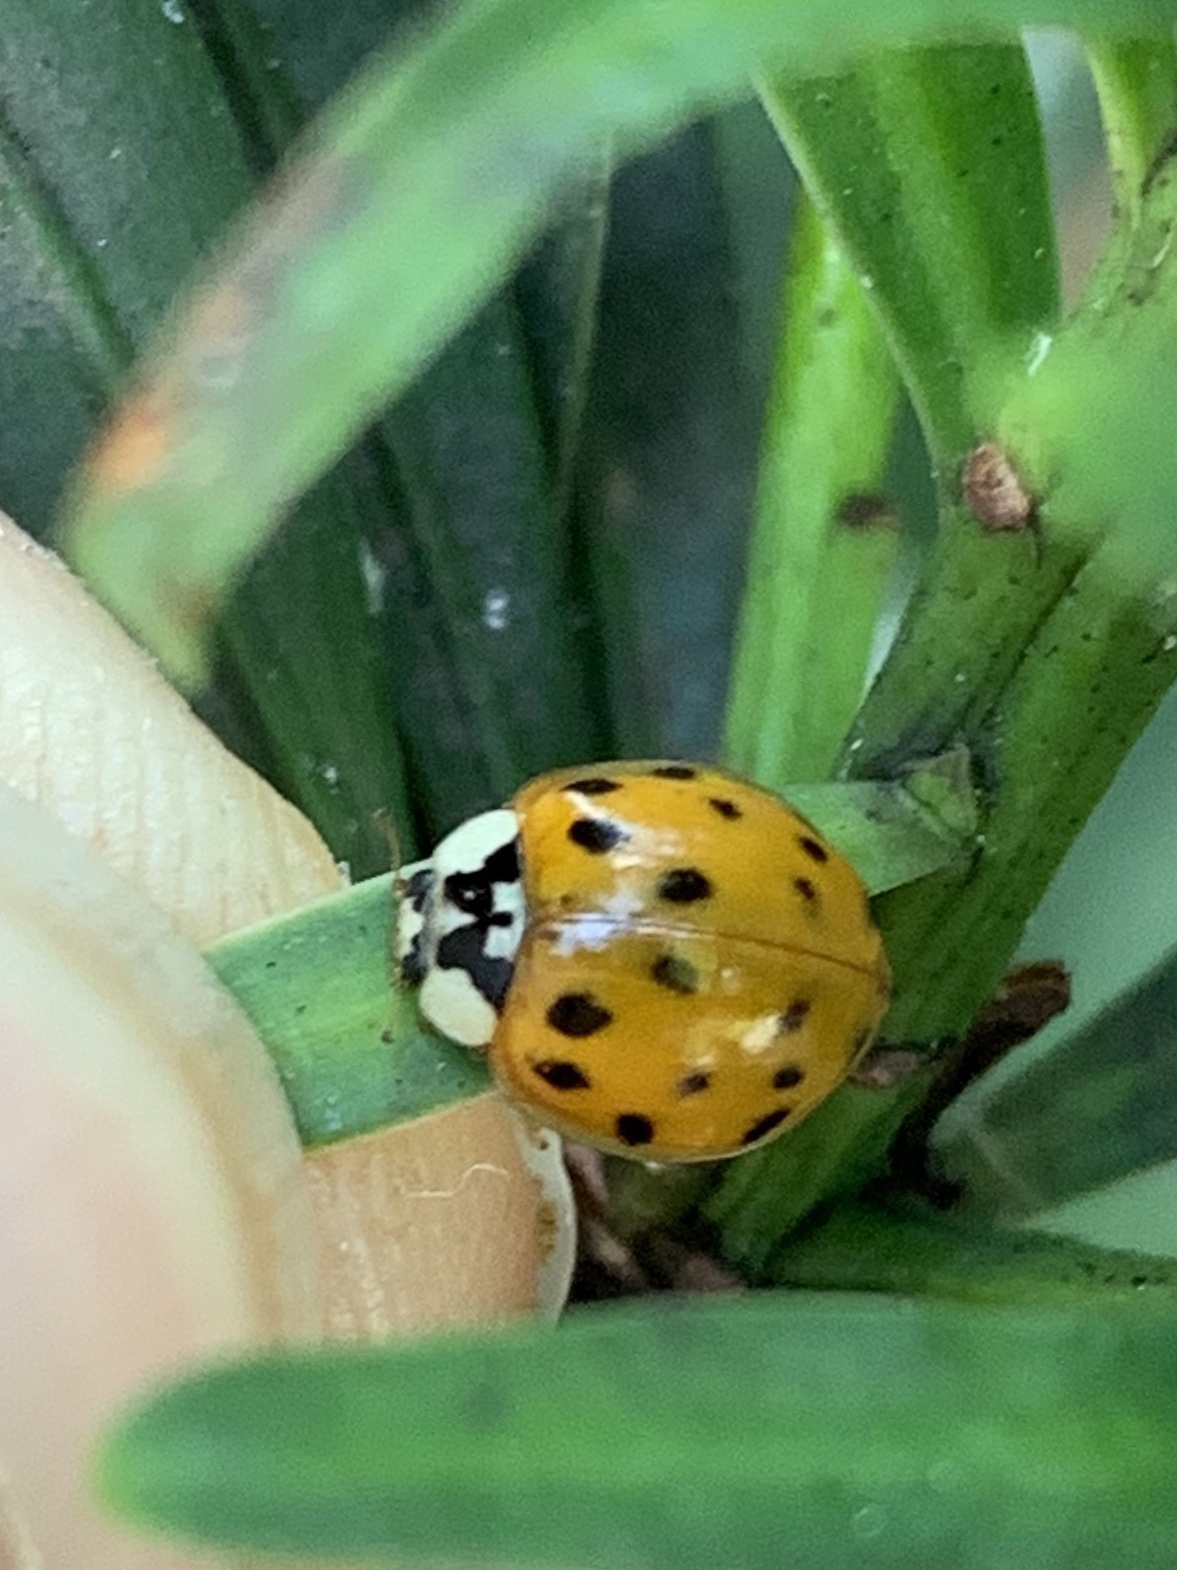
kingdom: Animalia
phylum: Arthropoda
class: Insecta
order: Coleoptera
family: Coccinellidae
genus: Harmonia
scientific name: Harmonia axyridis
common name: Harlequin ladybird
